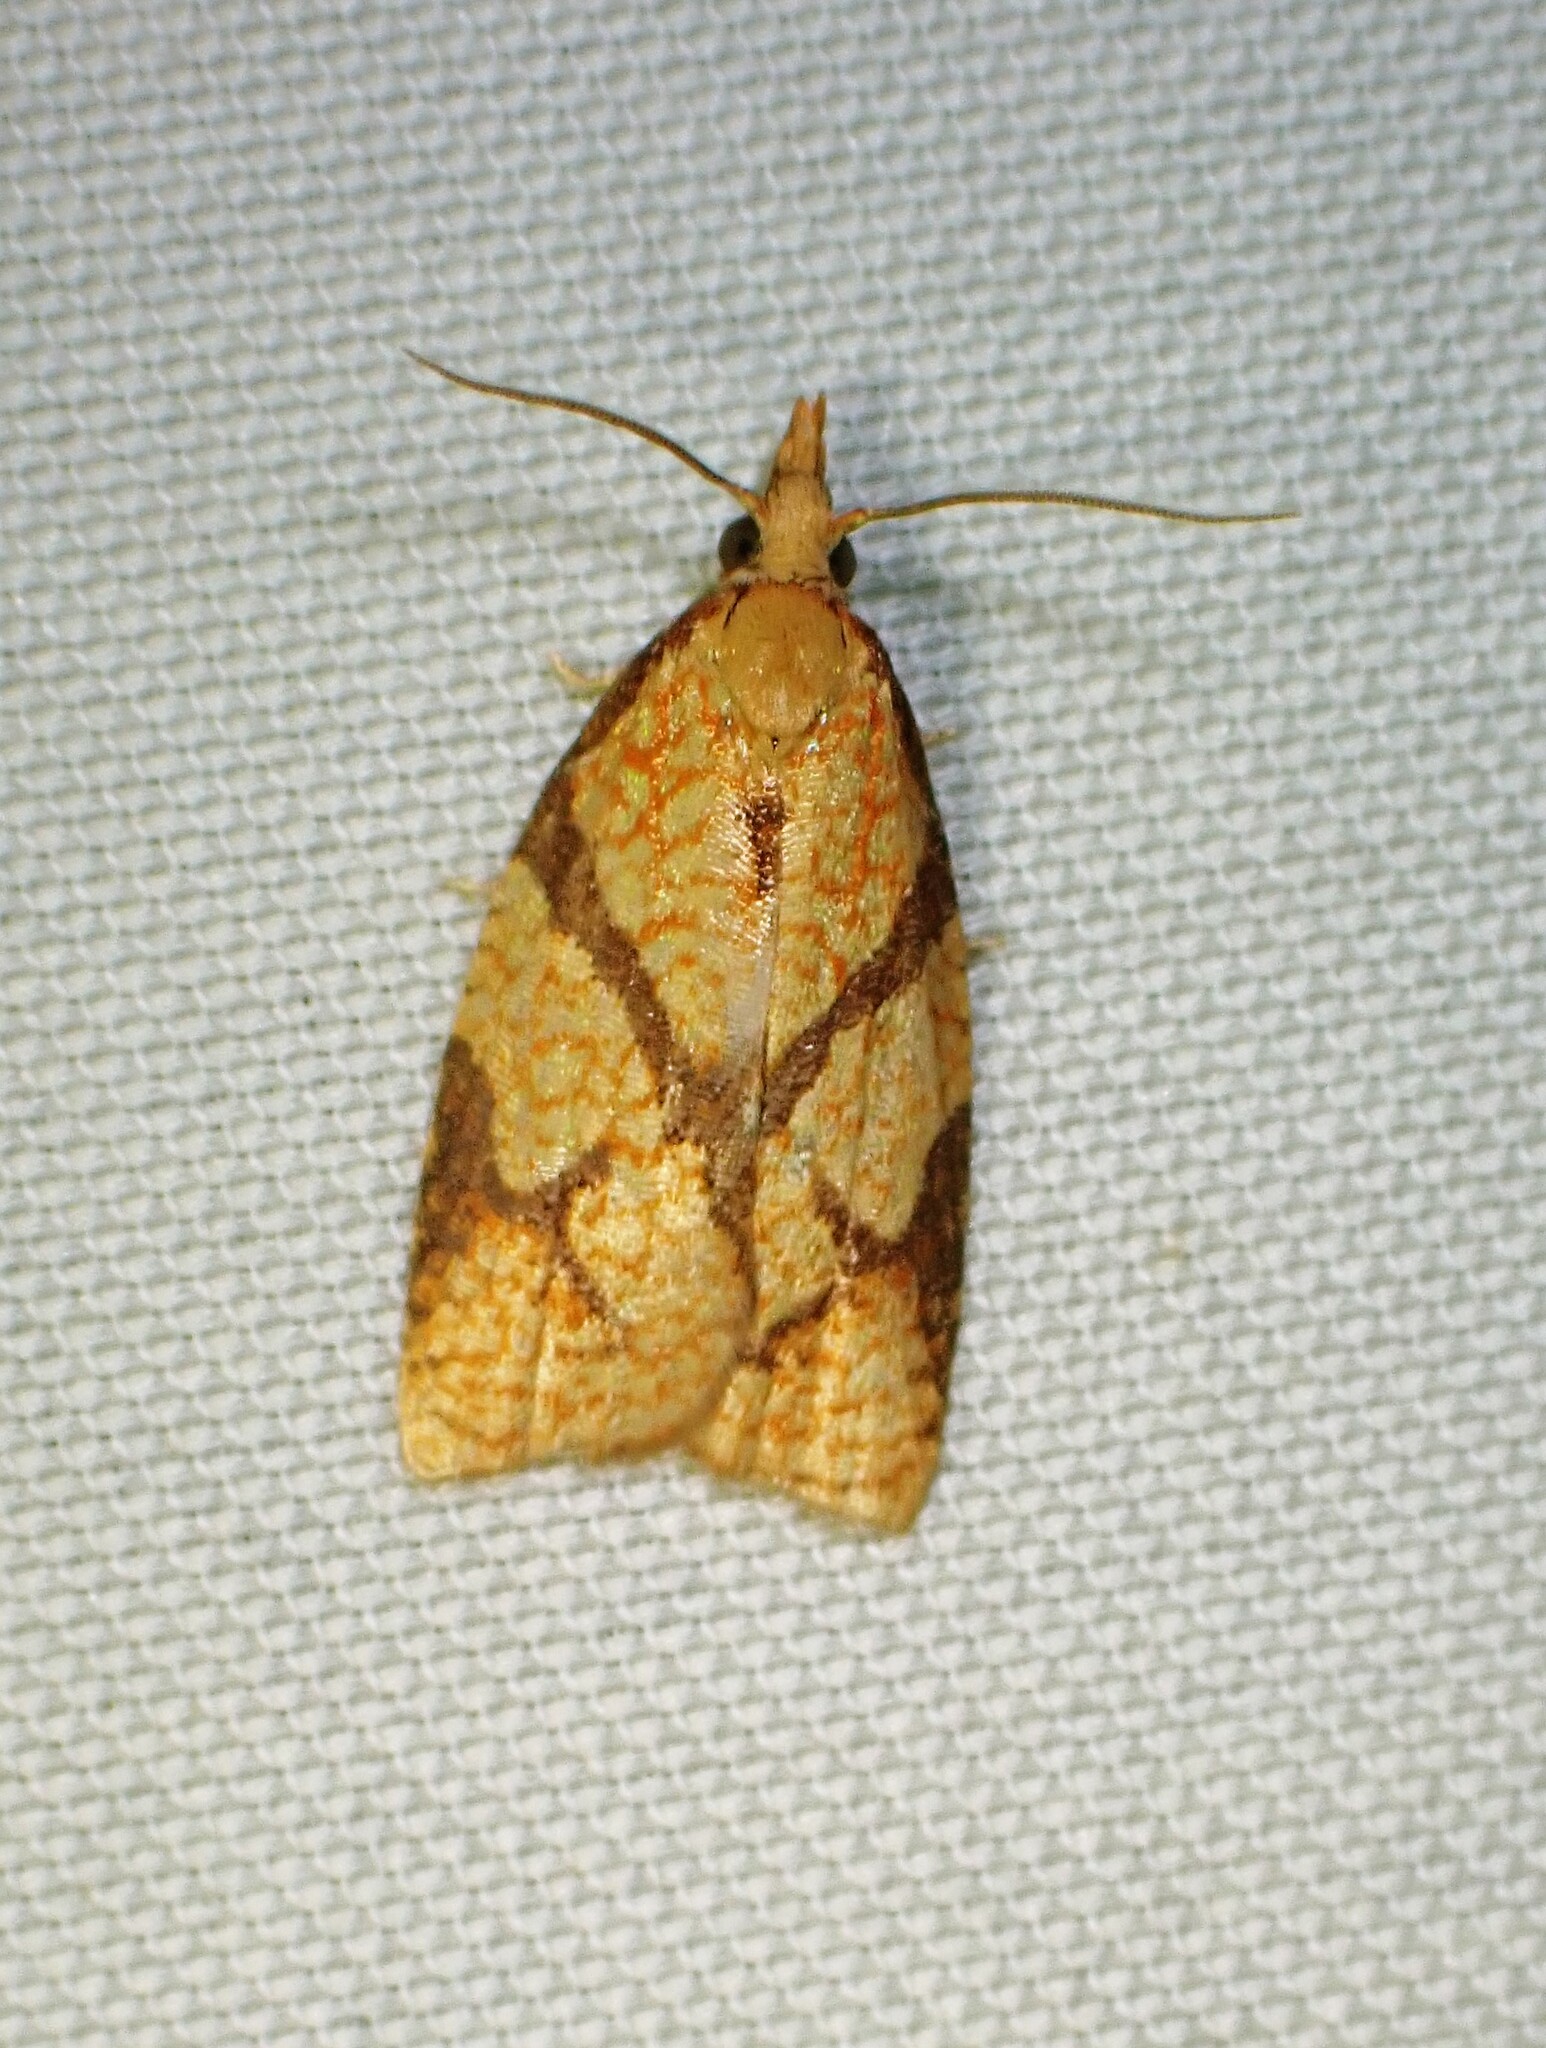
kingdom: Animalia
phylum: Arthropoda
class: Insecta
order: Lepidoptera
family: Tortricidae
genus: Cenopis
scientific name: Cenopis reticulatana
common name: Reticulated fruitworm moth
